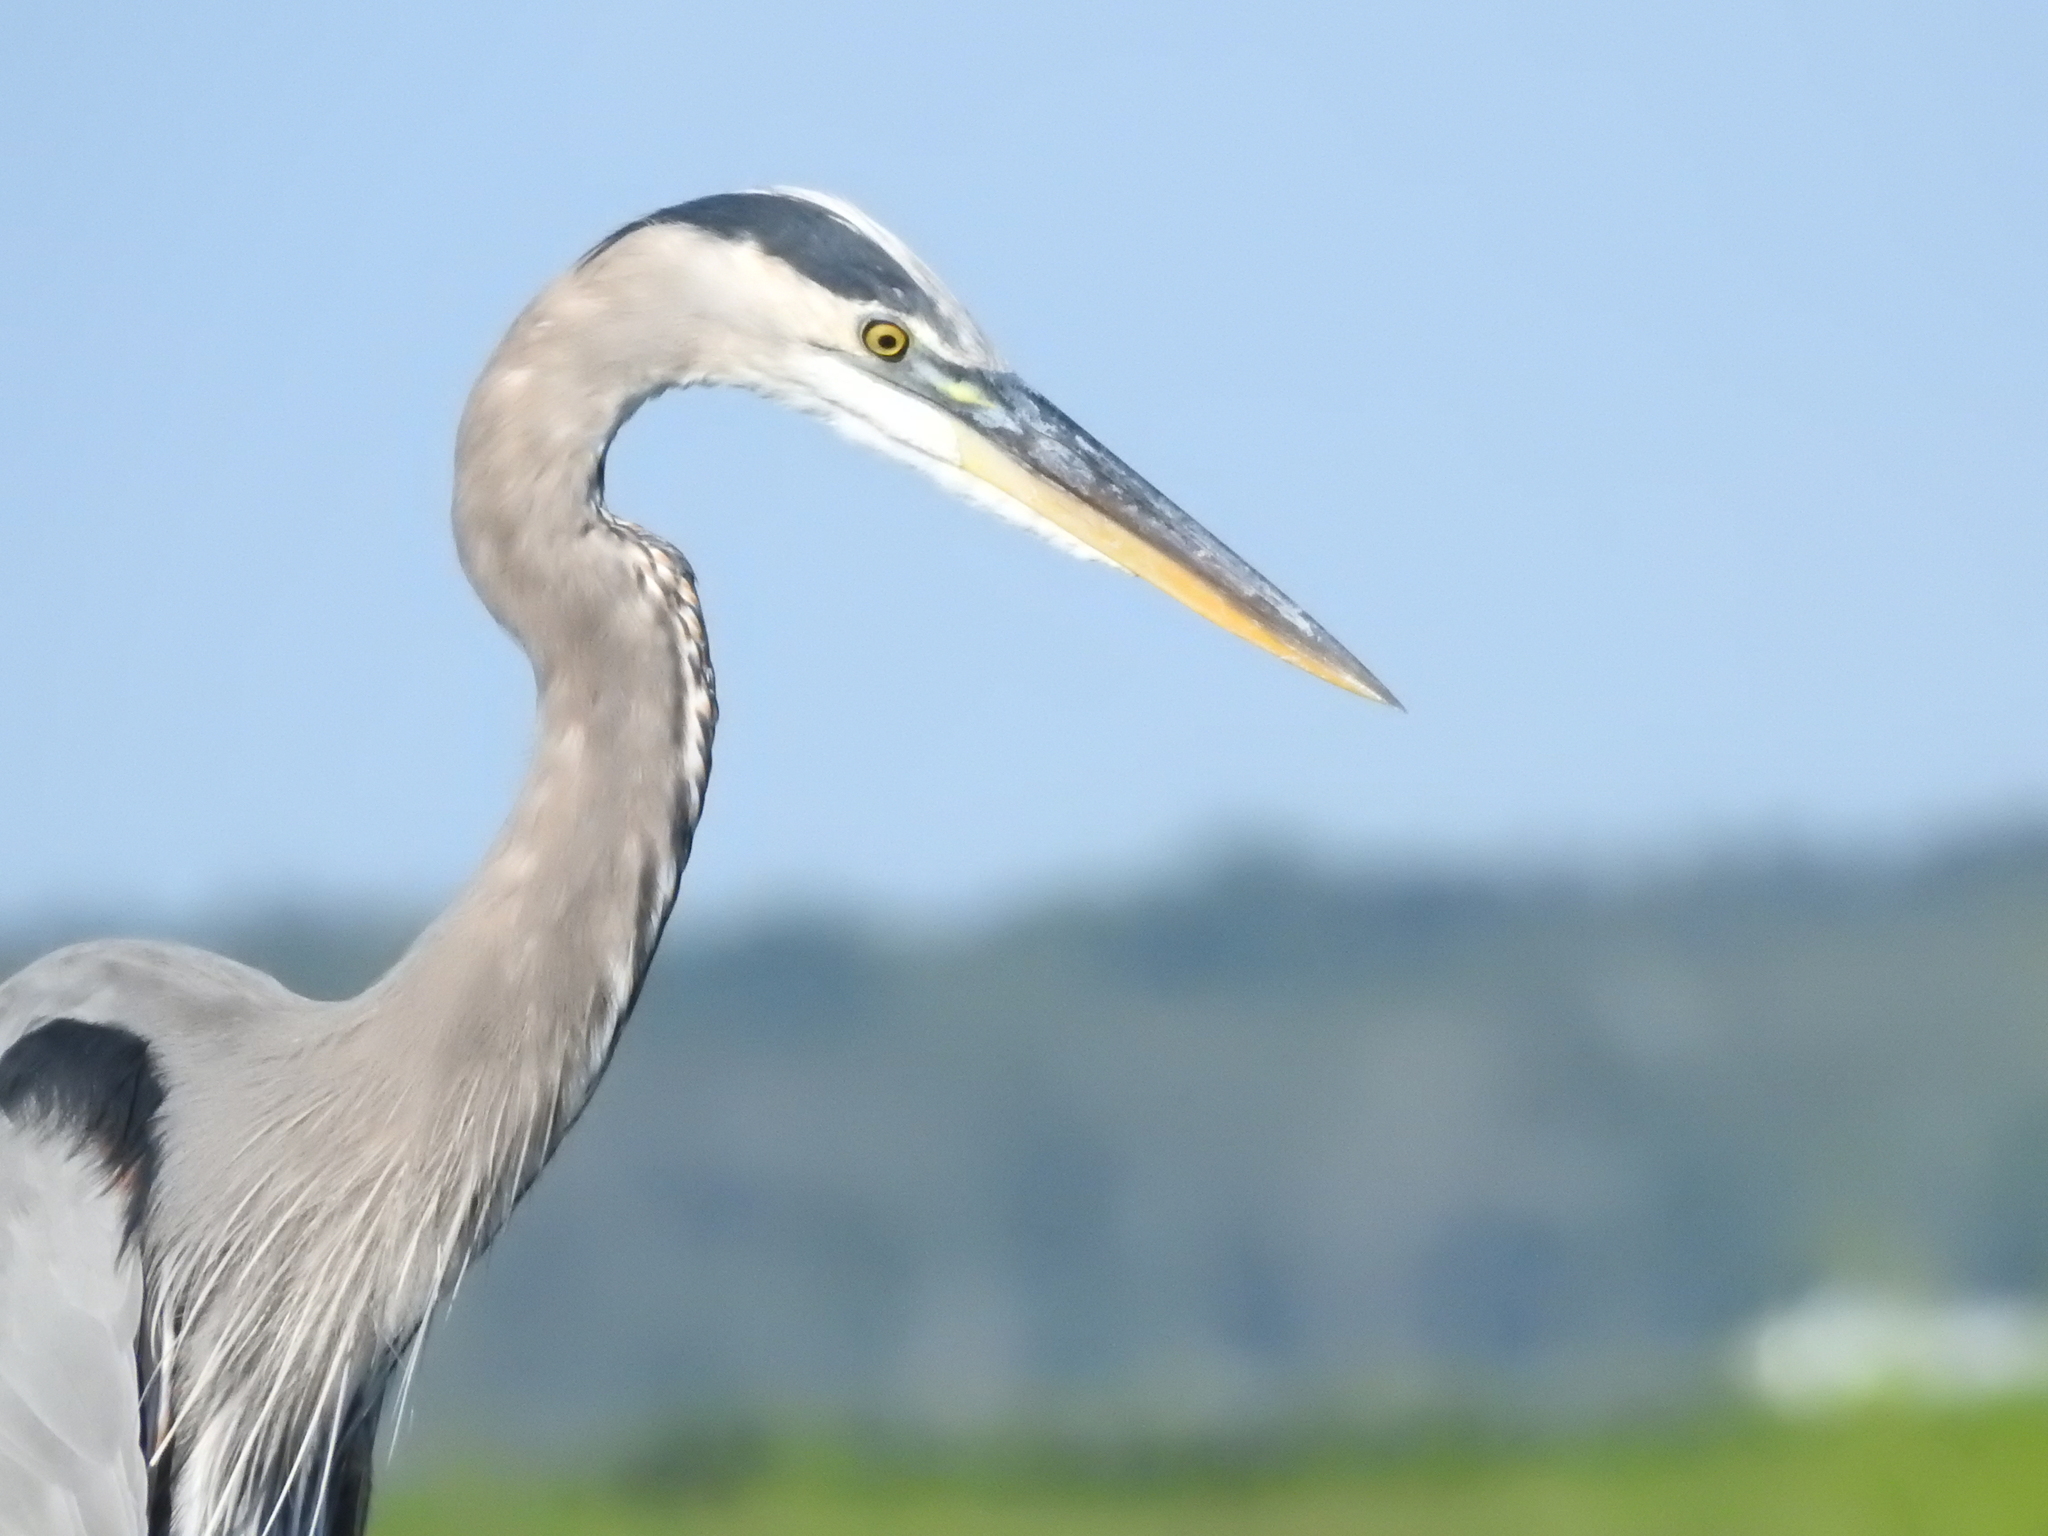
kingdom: Animalia
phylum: Chordata
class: Aves
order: Pelecaniformes
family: Ardeidae
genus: Ardea
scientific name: Ardea herodias
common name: Great blue heron
